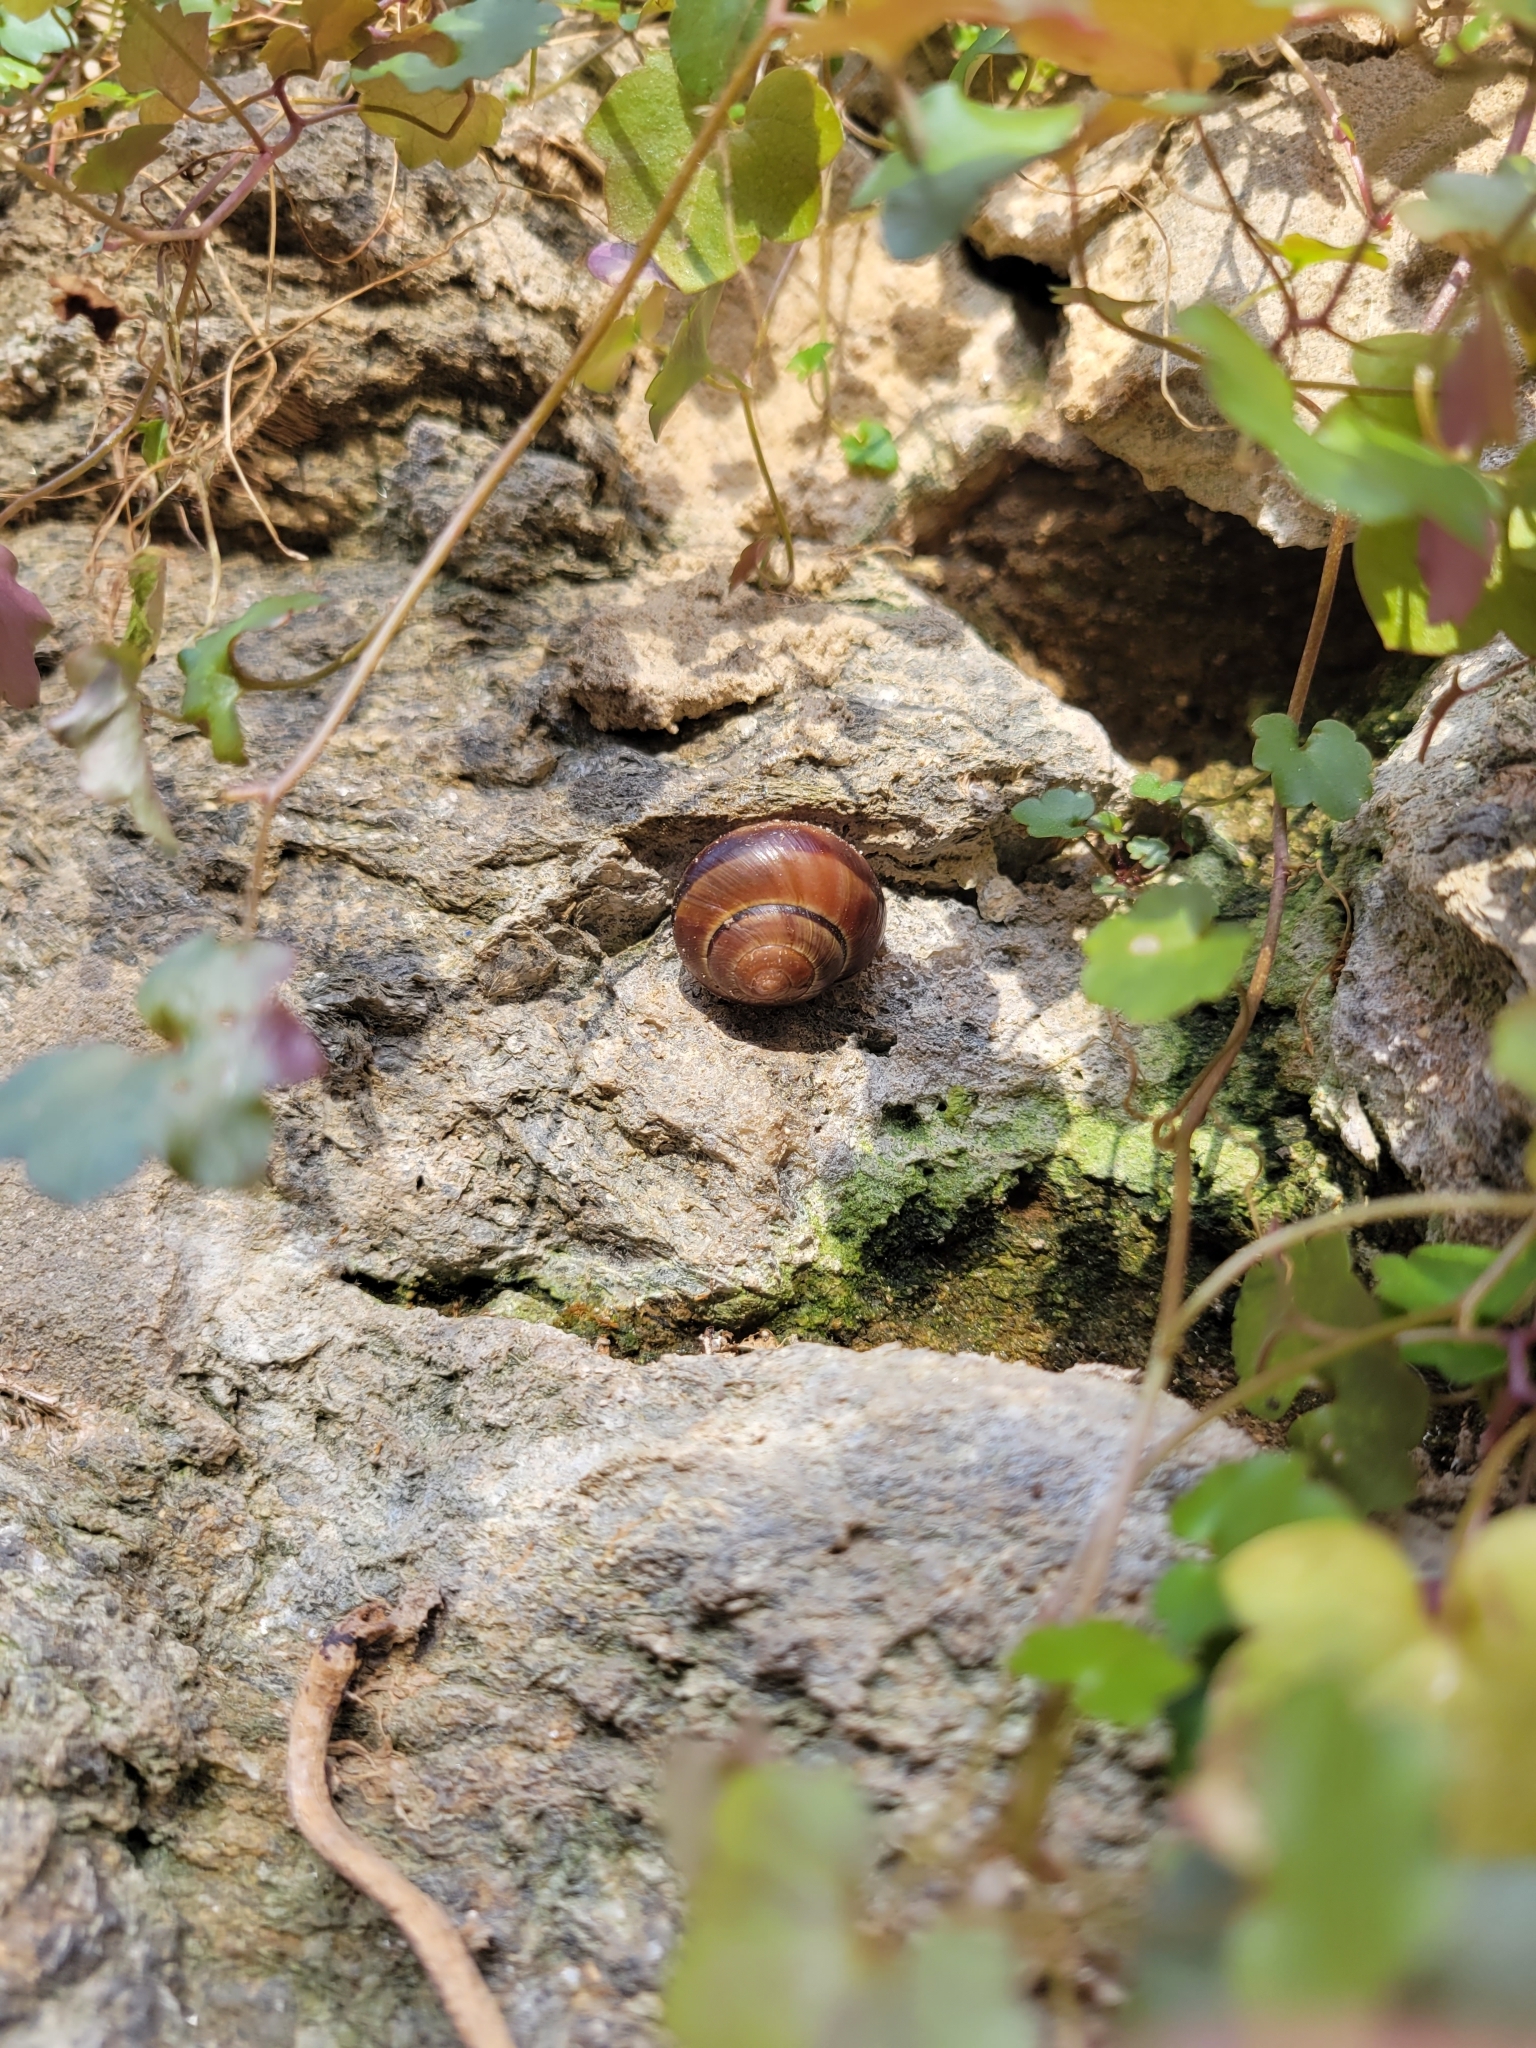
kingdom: Animalia
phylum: Mollusca
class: Gastropoda
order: Stylommatophora
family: Helicidae
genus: Cepaea
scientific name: Cepaea nemoralis
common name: Grovesnail
